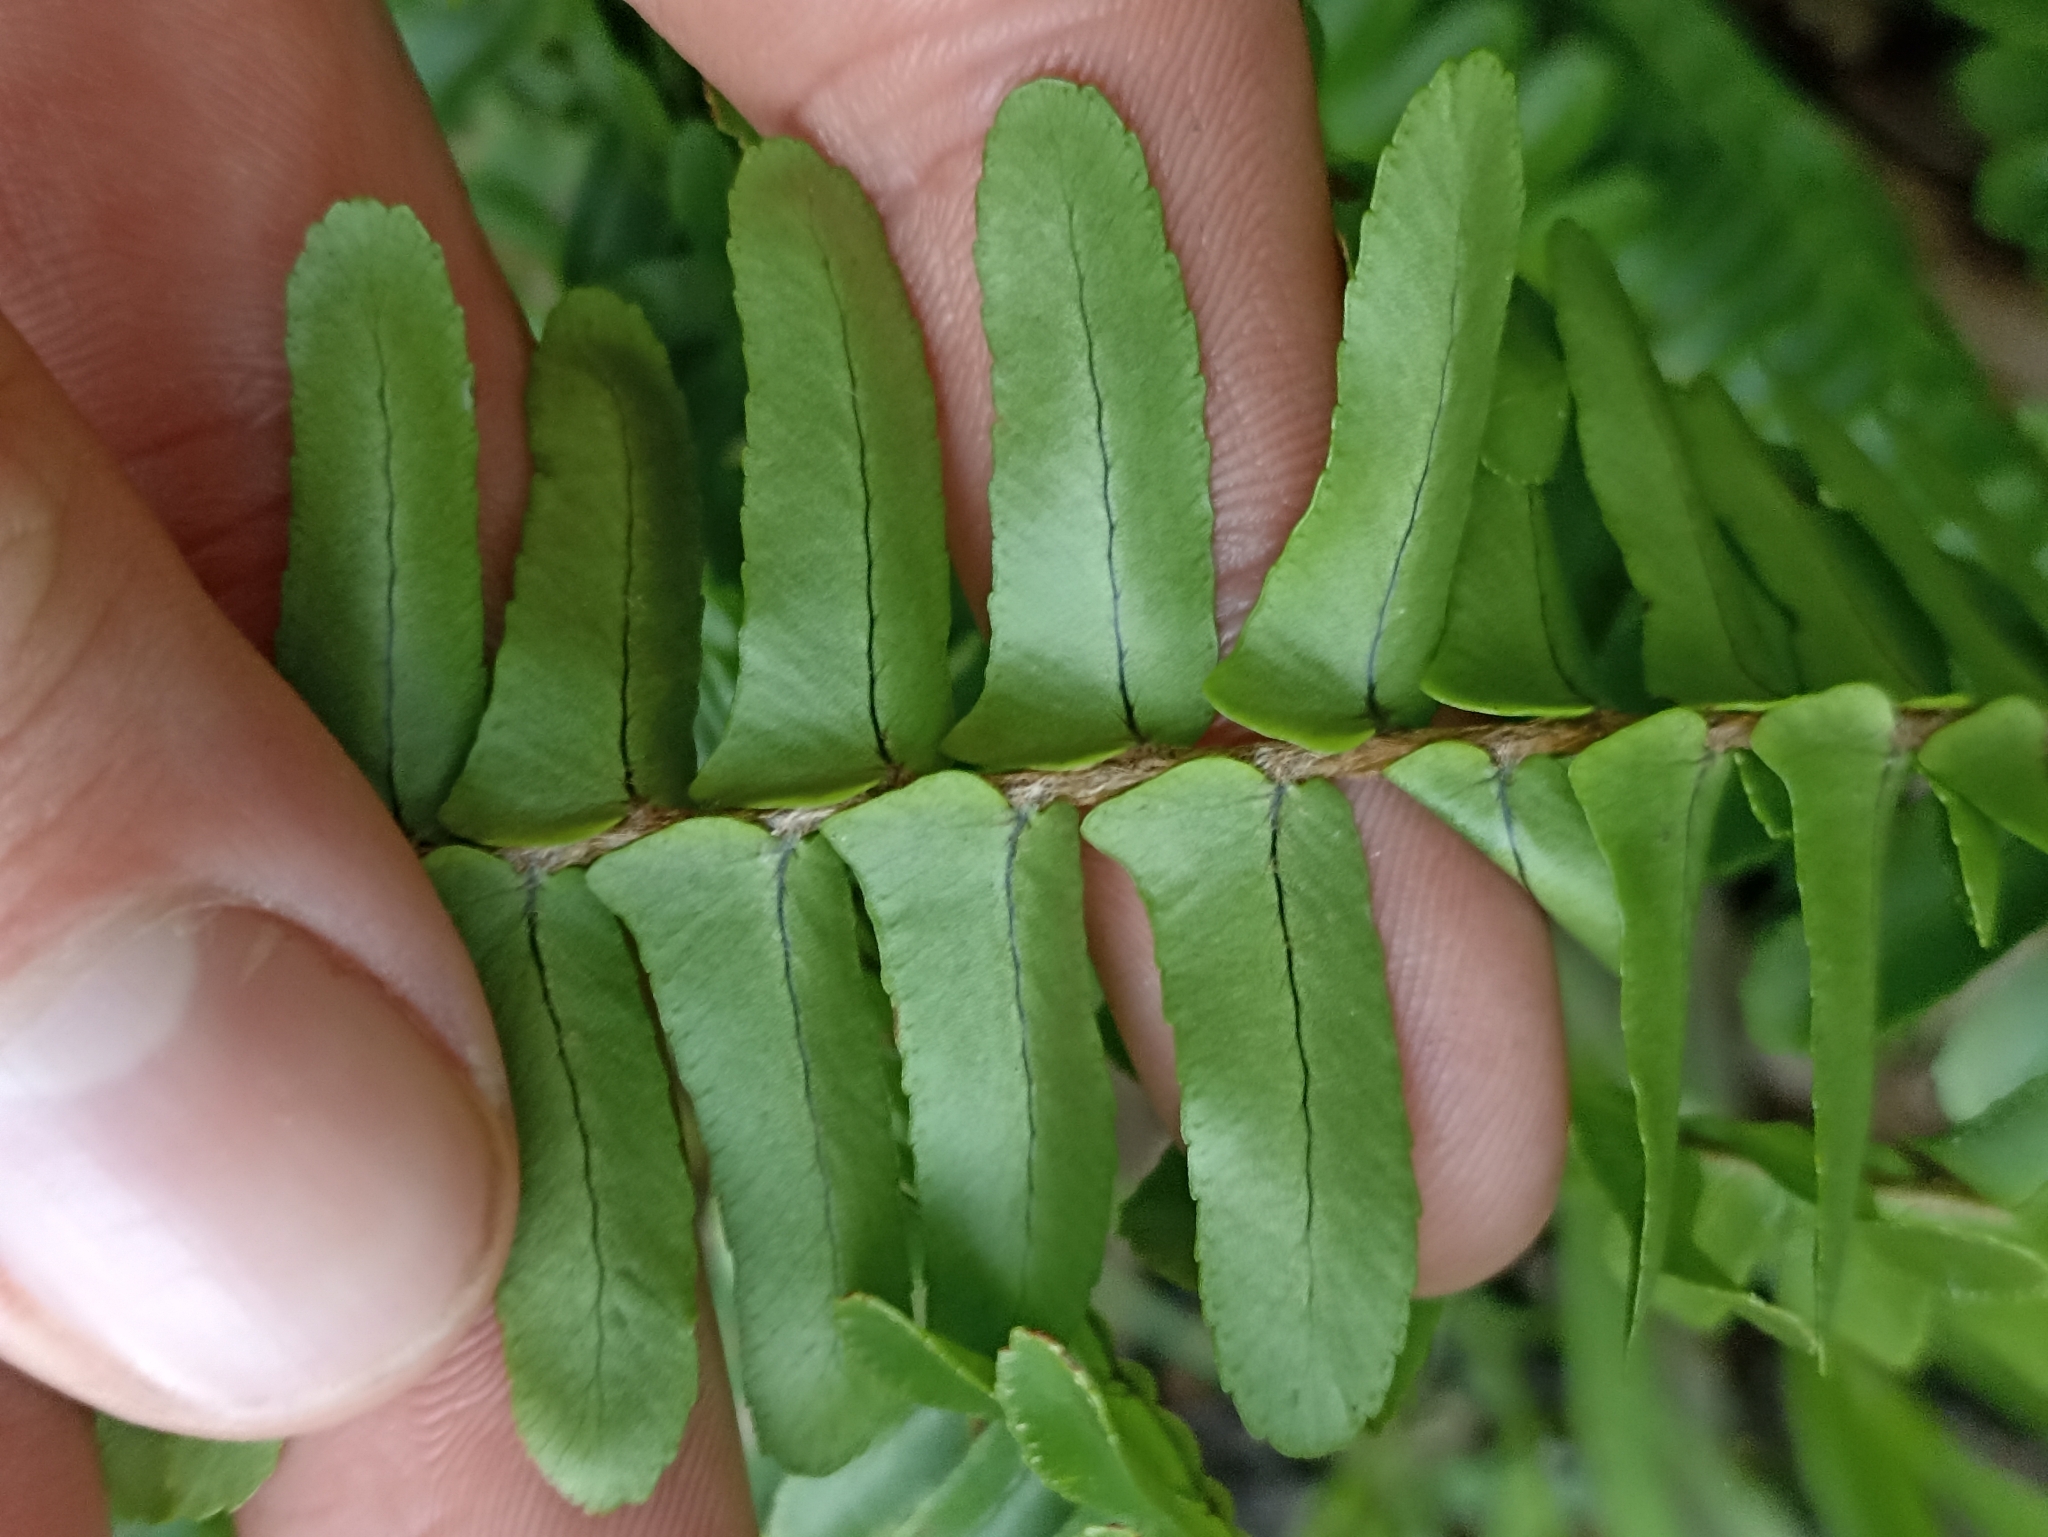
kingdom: Plantae
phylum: Tracheophyta
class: Polypodiopsida
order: Polypodiales
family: Nephrolepidaceae
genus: Nephrolepis
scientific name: Nephrolepis cordifolia
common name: Narrow swordfern
